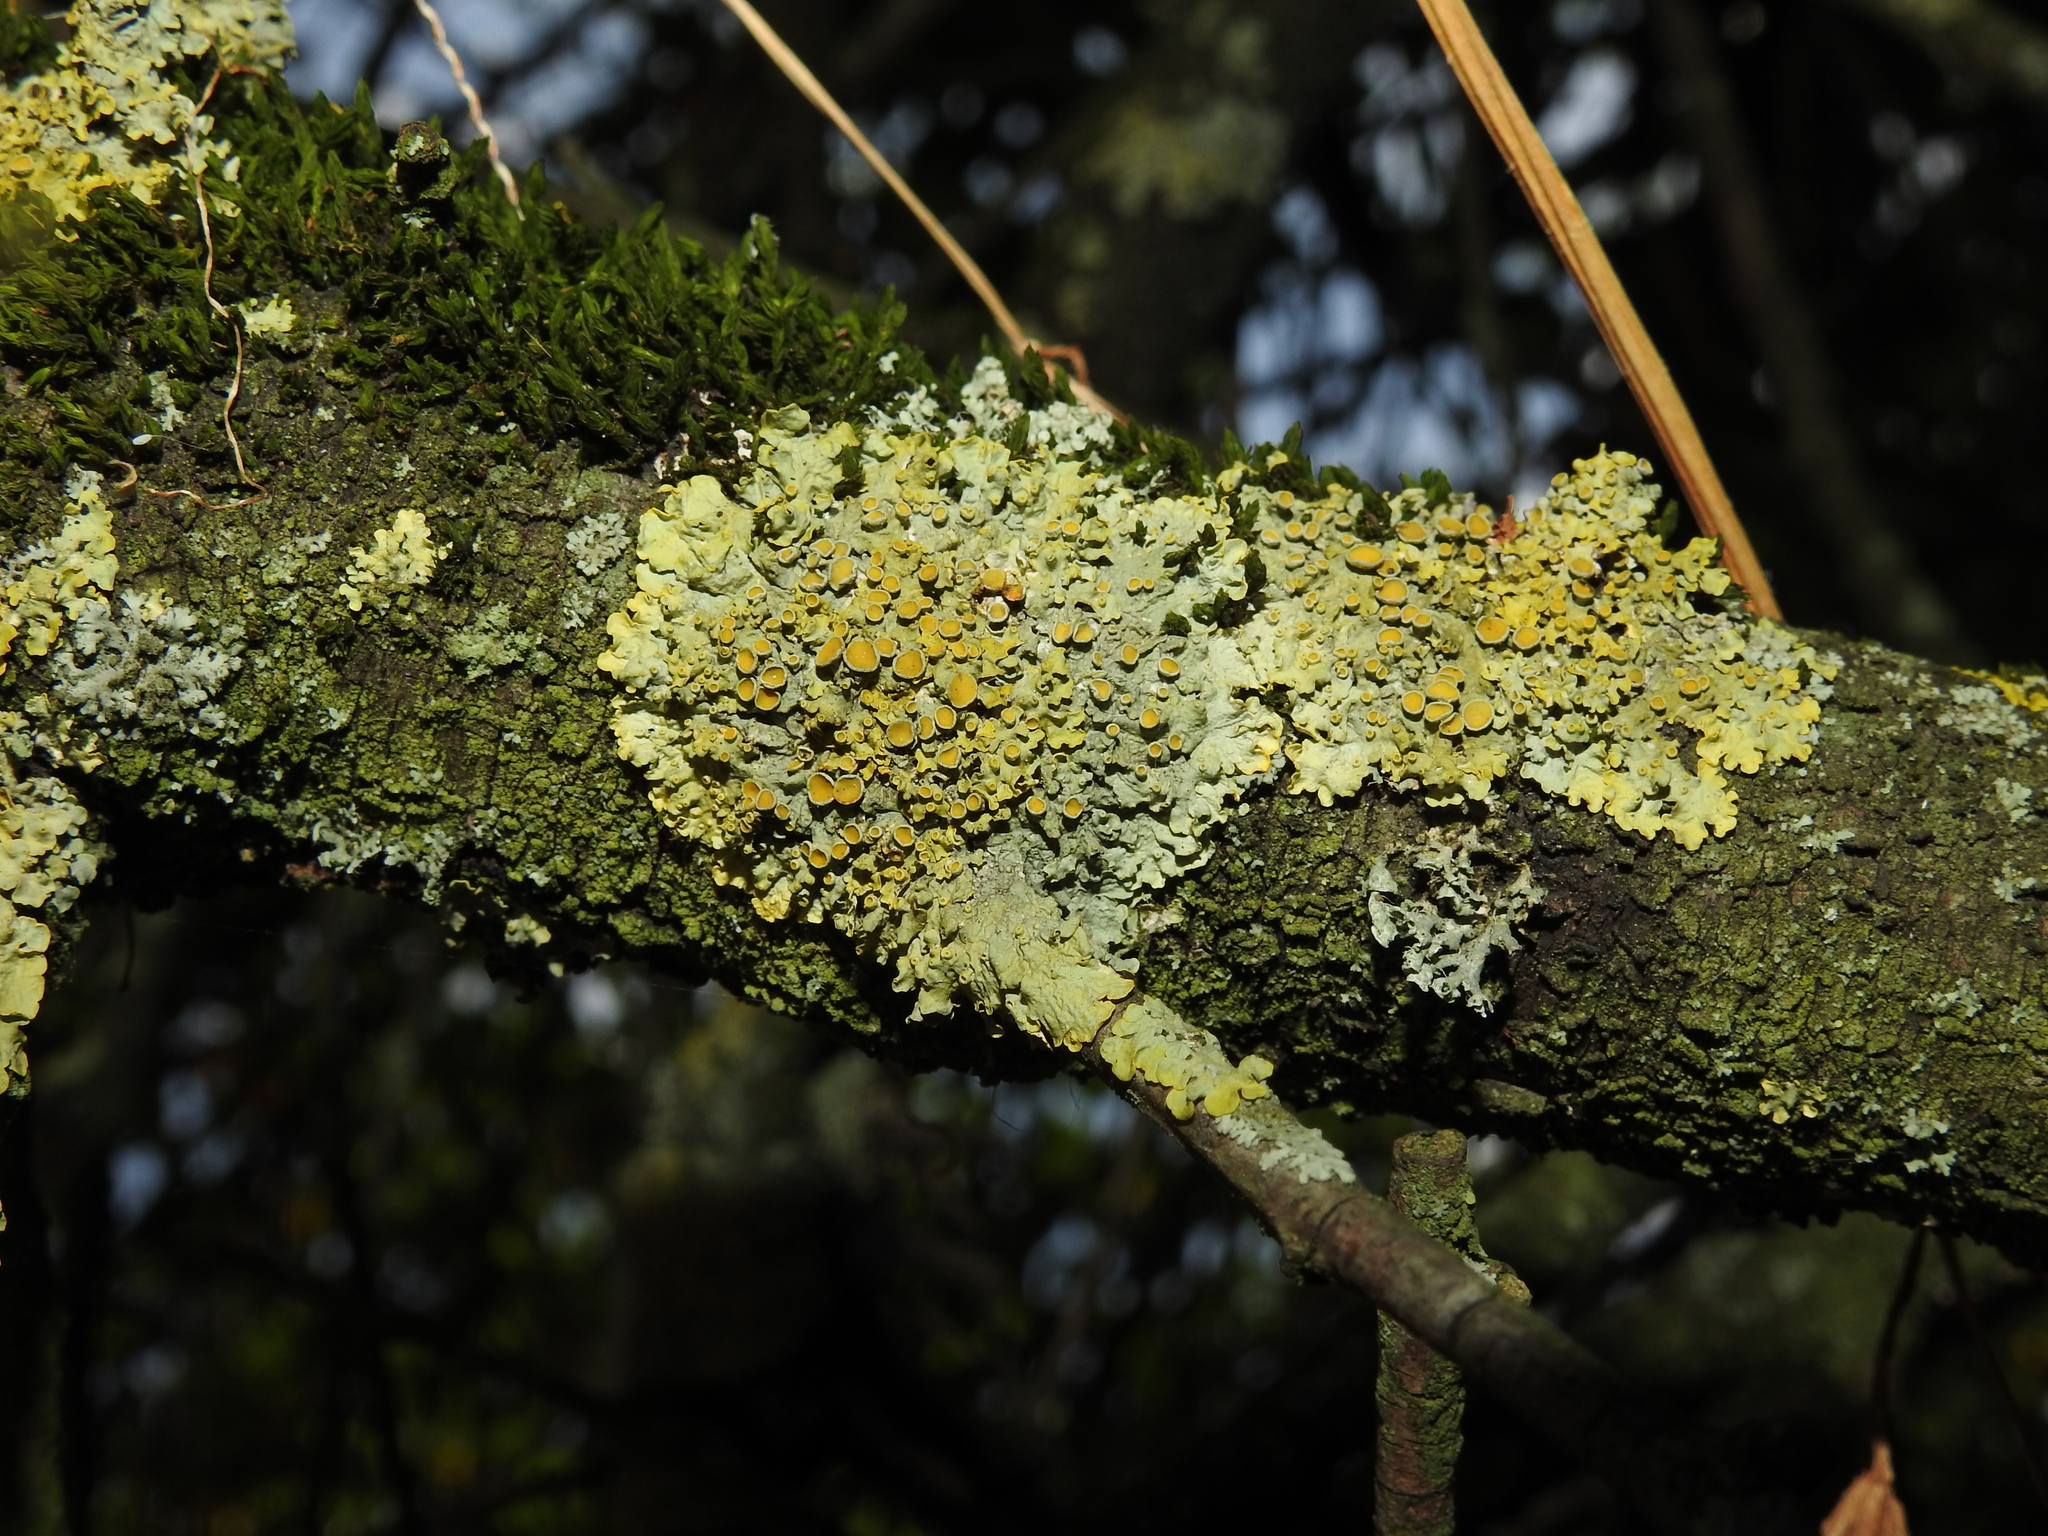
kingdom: Fungi
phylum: Ascomycota
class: Lecanoromycetes
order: Teloschistales
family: Teloschistaceae
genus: Xanthoria
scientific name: Xanthoria parietina
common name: Common orange lichen
